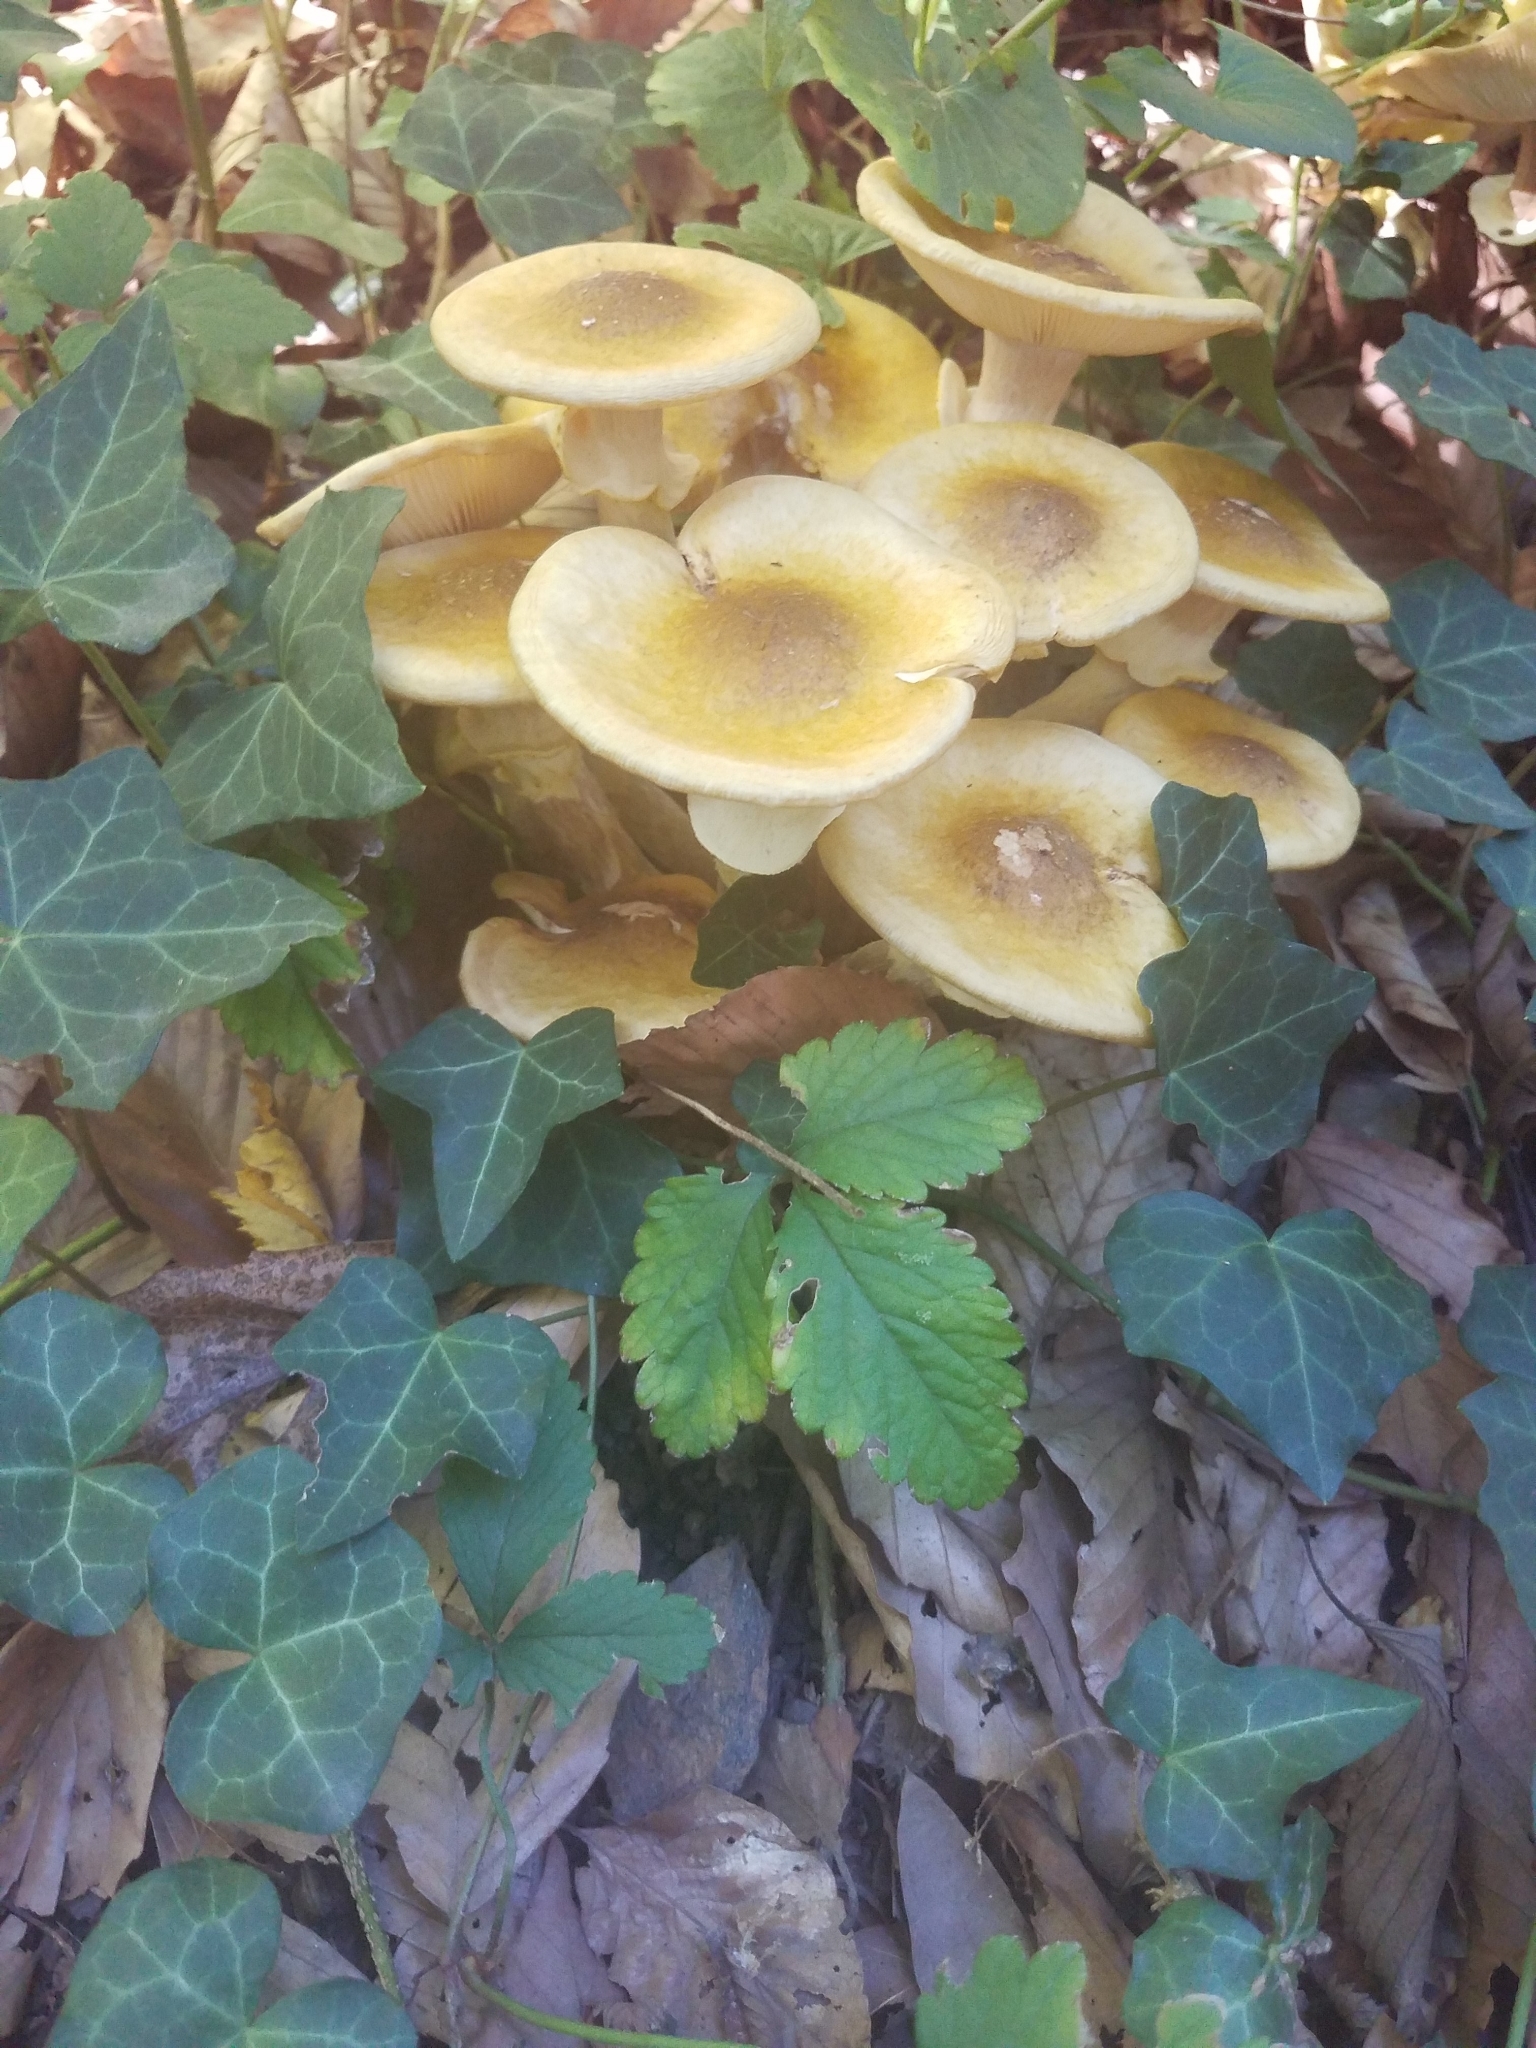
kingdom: Fungi
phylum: Basidiomycota
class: Agaricomycetes
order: Agaricales
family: Physalacriaceae
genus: Armillaria
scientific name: Armillaria mellea
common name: Honey fungus
